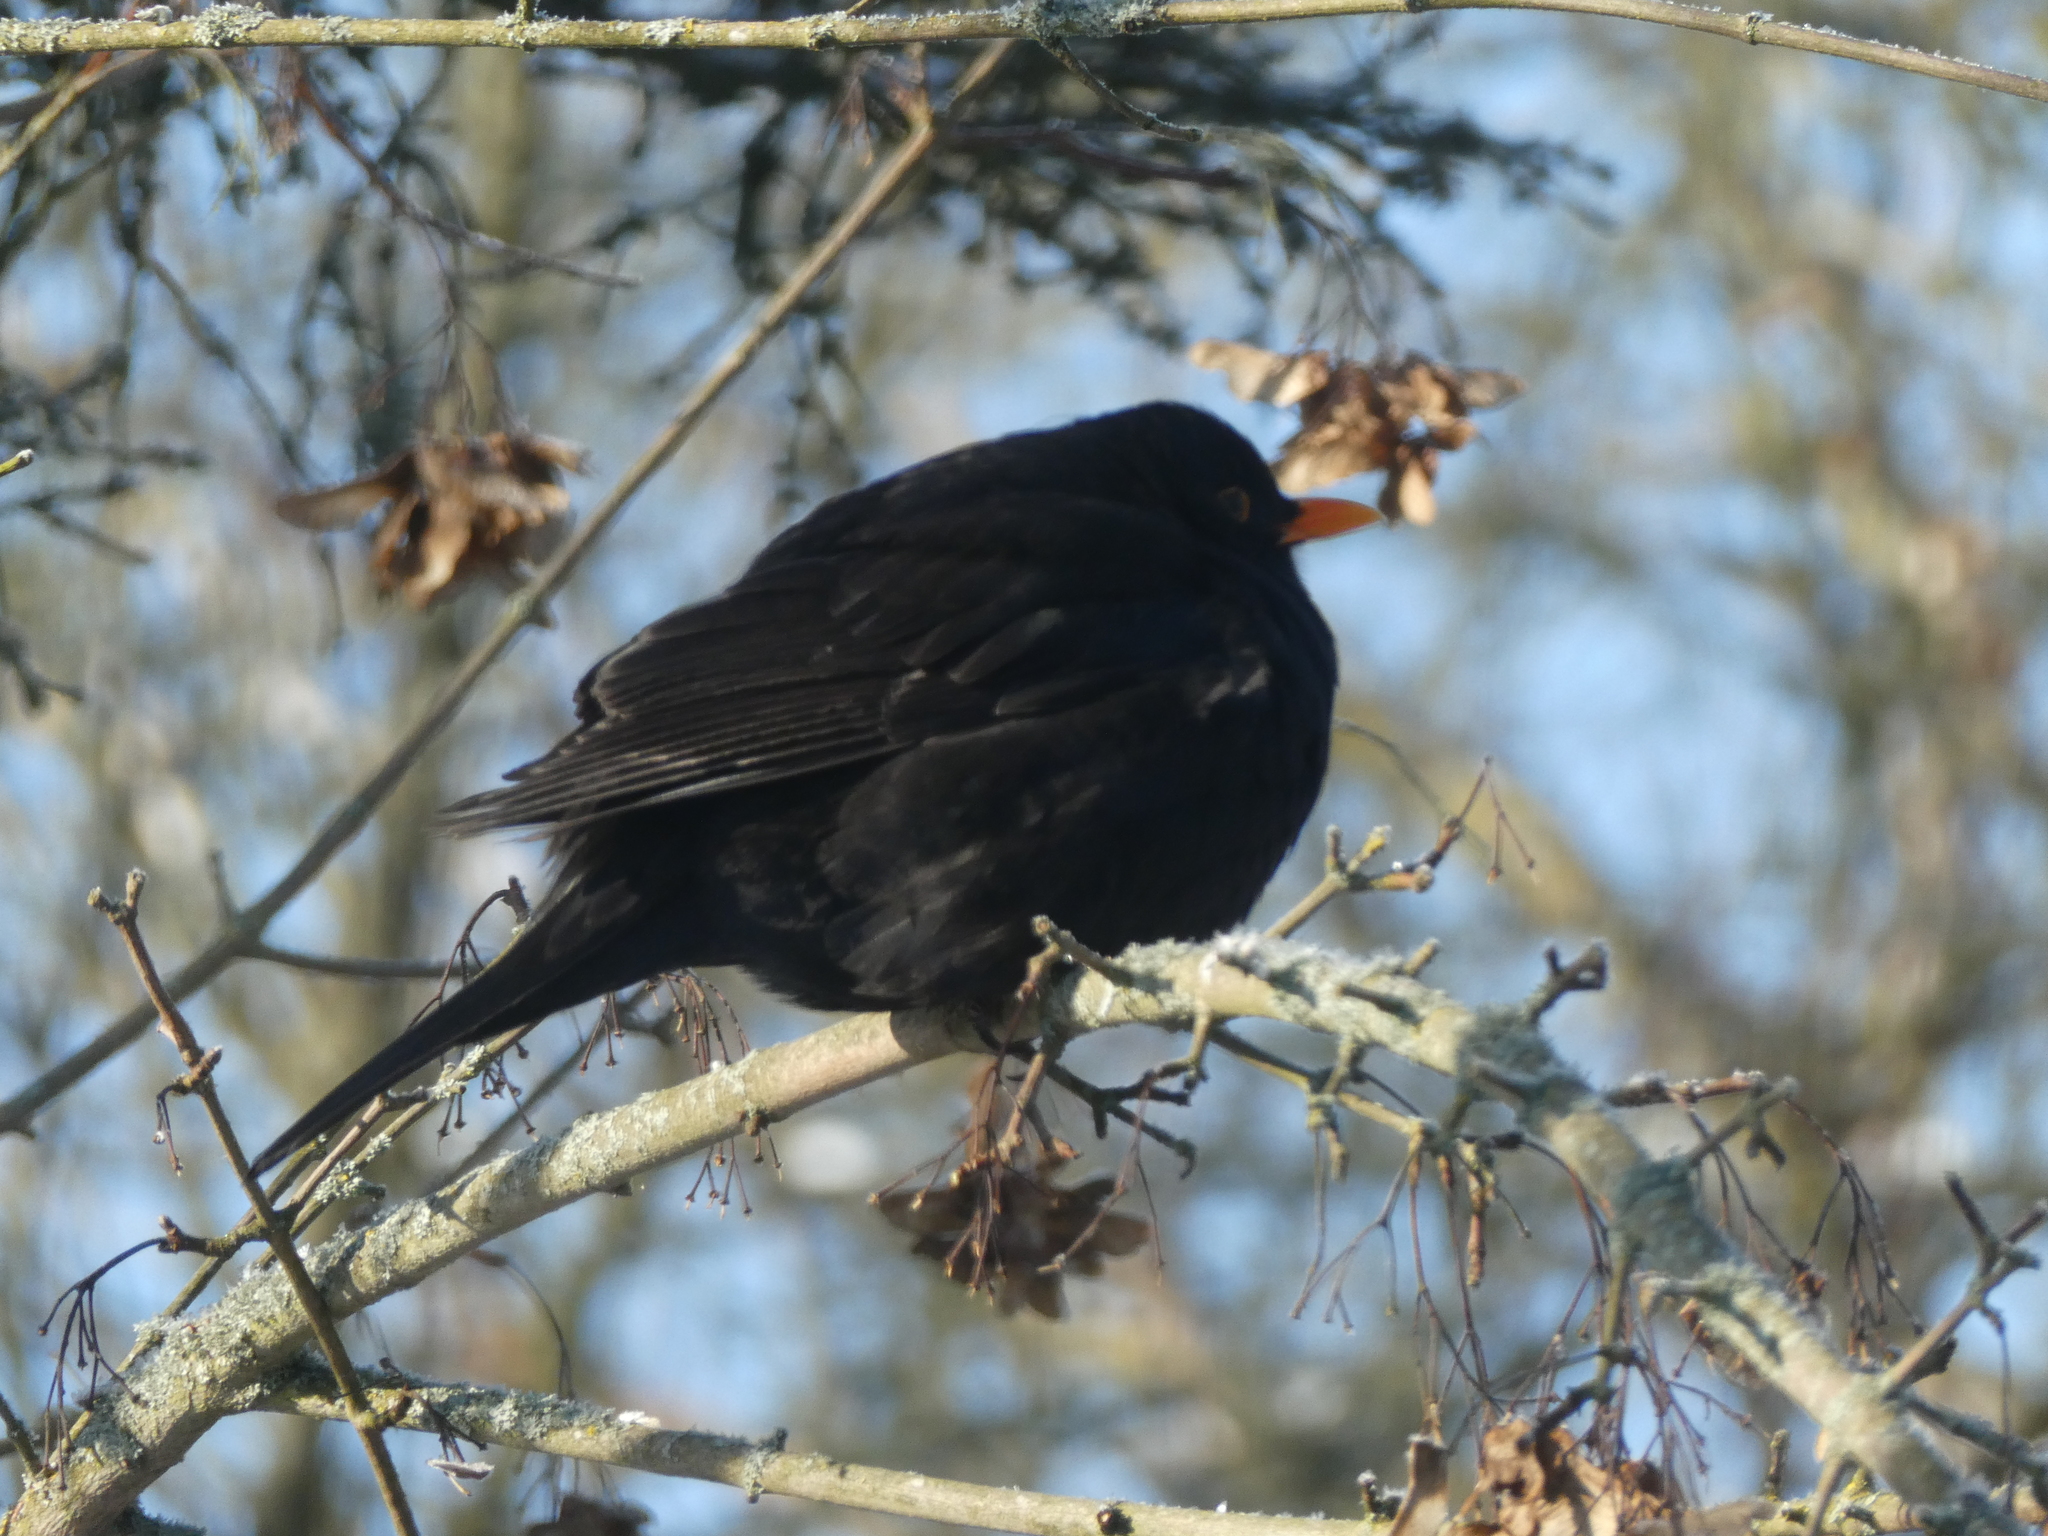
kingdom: Animalia
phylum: Chordata
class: Aves
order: Passeriformes
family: Turdidae
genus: Turdus
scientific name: Turdus merula
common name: Common blackbird
